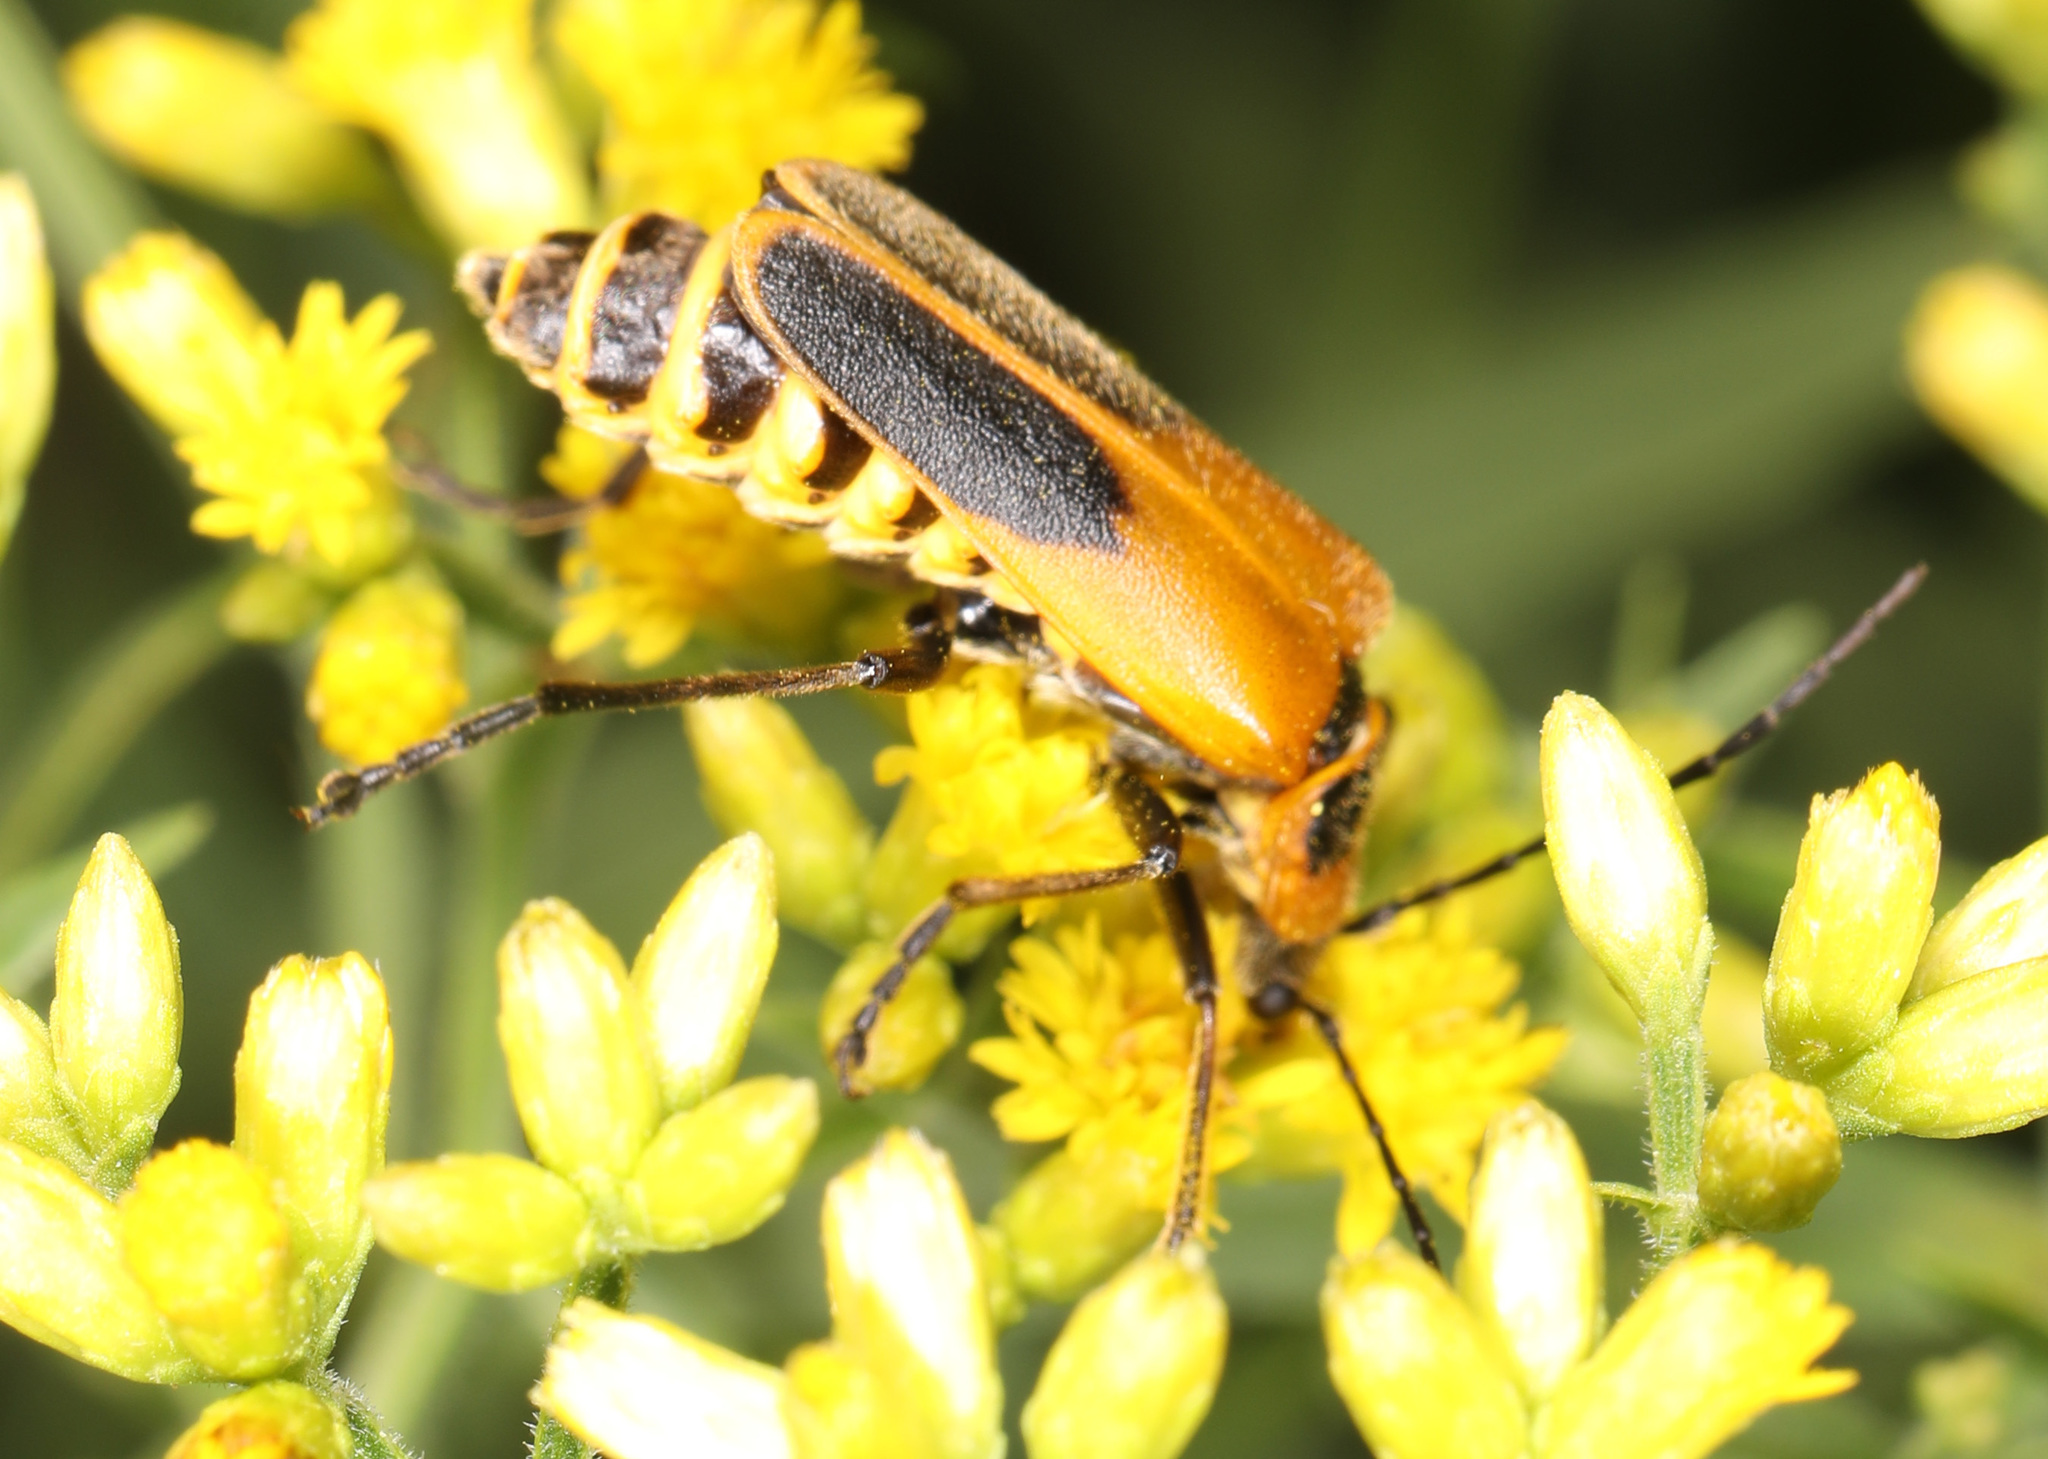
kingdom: Animalia
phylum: Arthropoda
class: Insecta
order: Coleoptera
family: Cantharidae
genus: Chauliognathus
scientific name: Chauliognathus pensylvanicus
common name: Goldenrod soldier beetle
